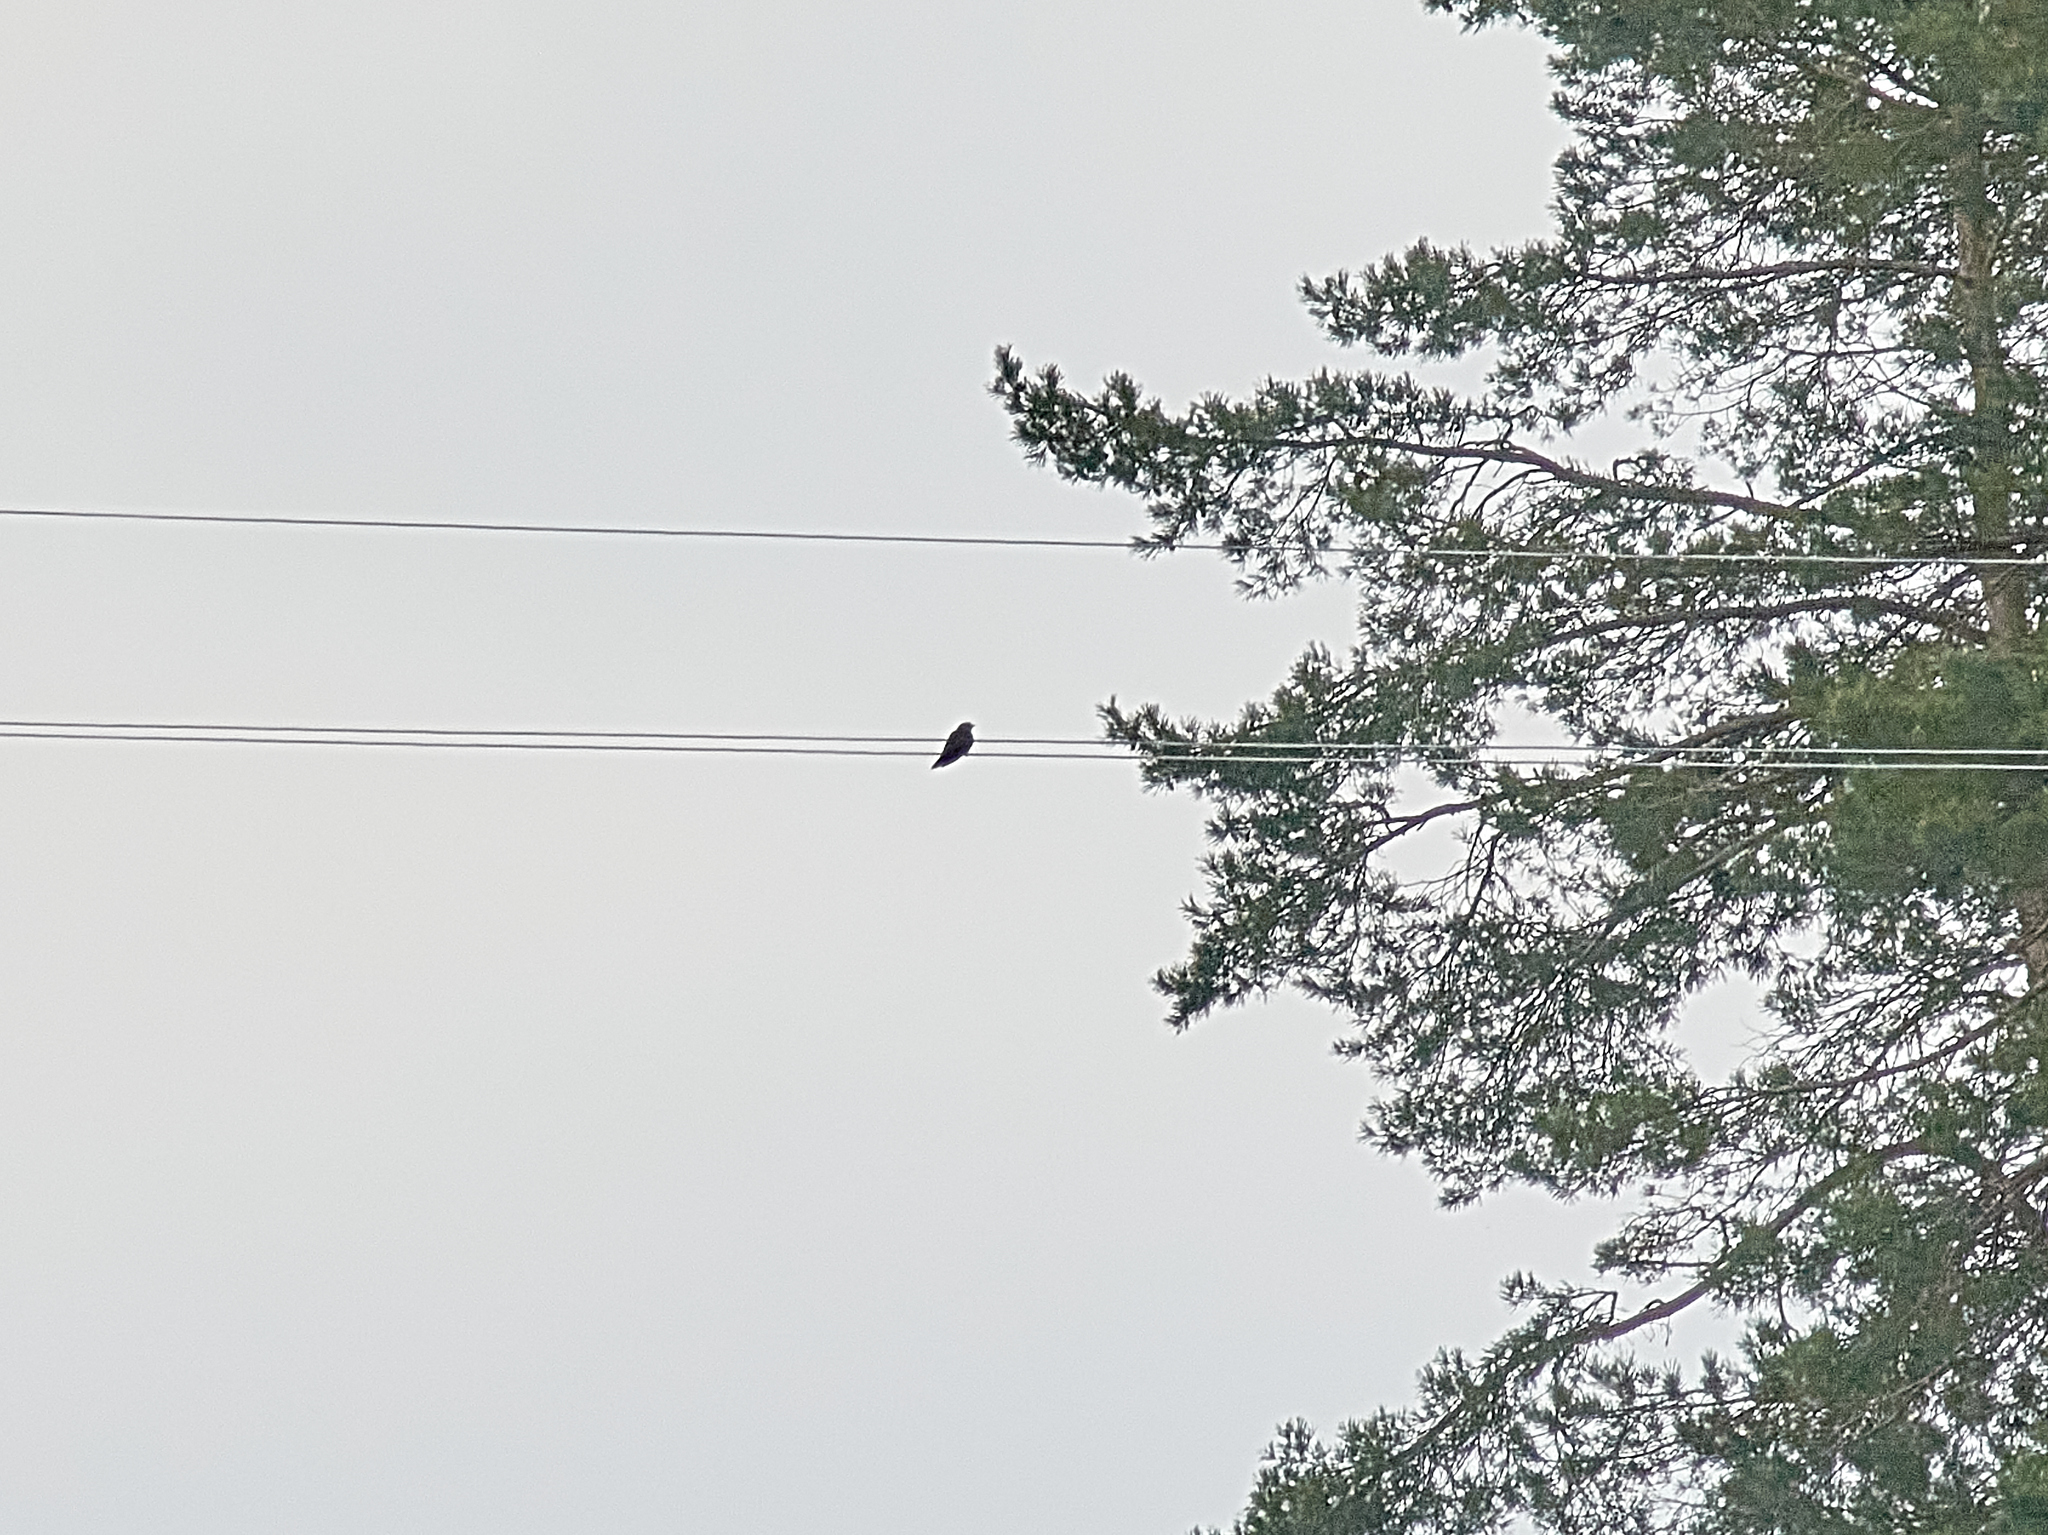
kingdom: Animalia
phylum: Chordata
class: Aves
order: Cuculiformes
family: Cuculidae
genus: Cuculus
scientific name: Cuculus canorus
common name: Common cuckoo
